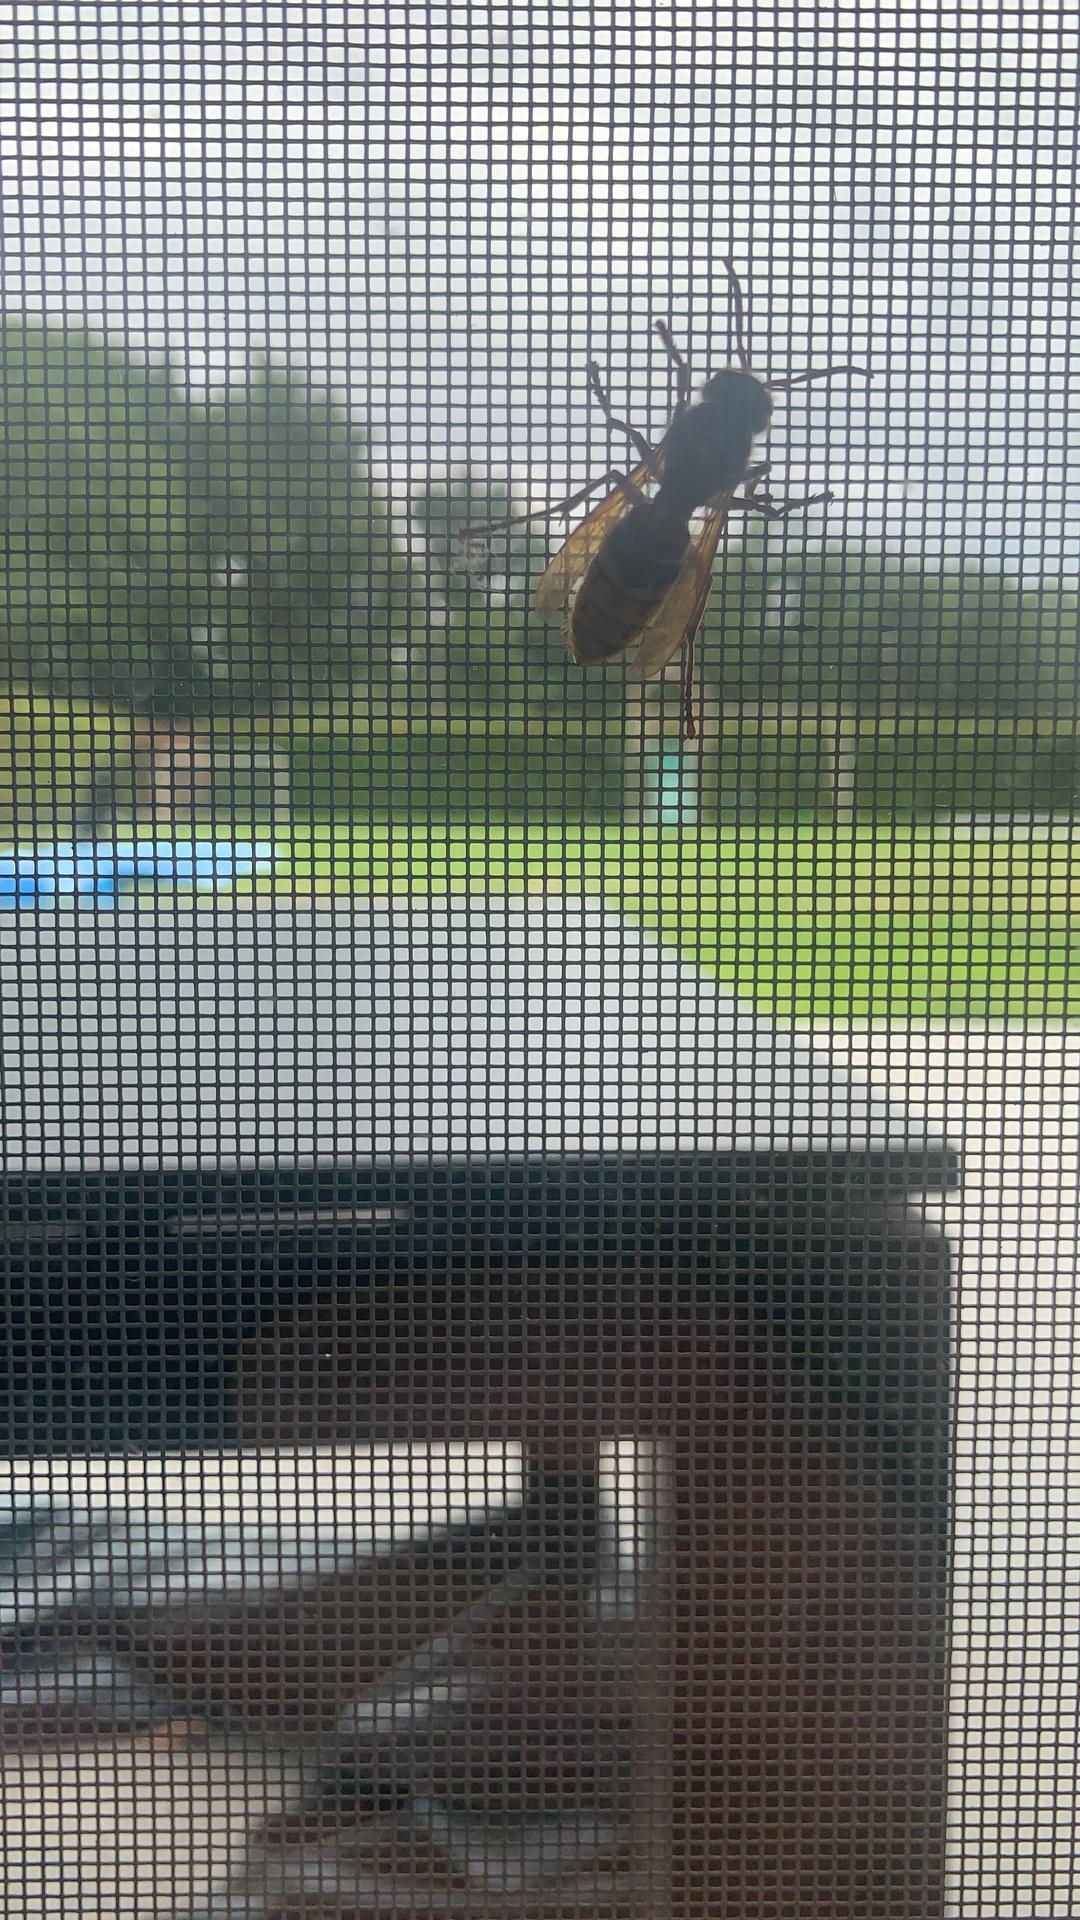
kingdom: Animalia
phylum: Arthropoda
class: Insecta
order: Hymenoptera
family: Vespidae
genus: Vespa
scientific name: Vespa crabro
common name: Hornet
